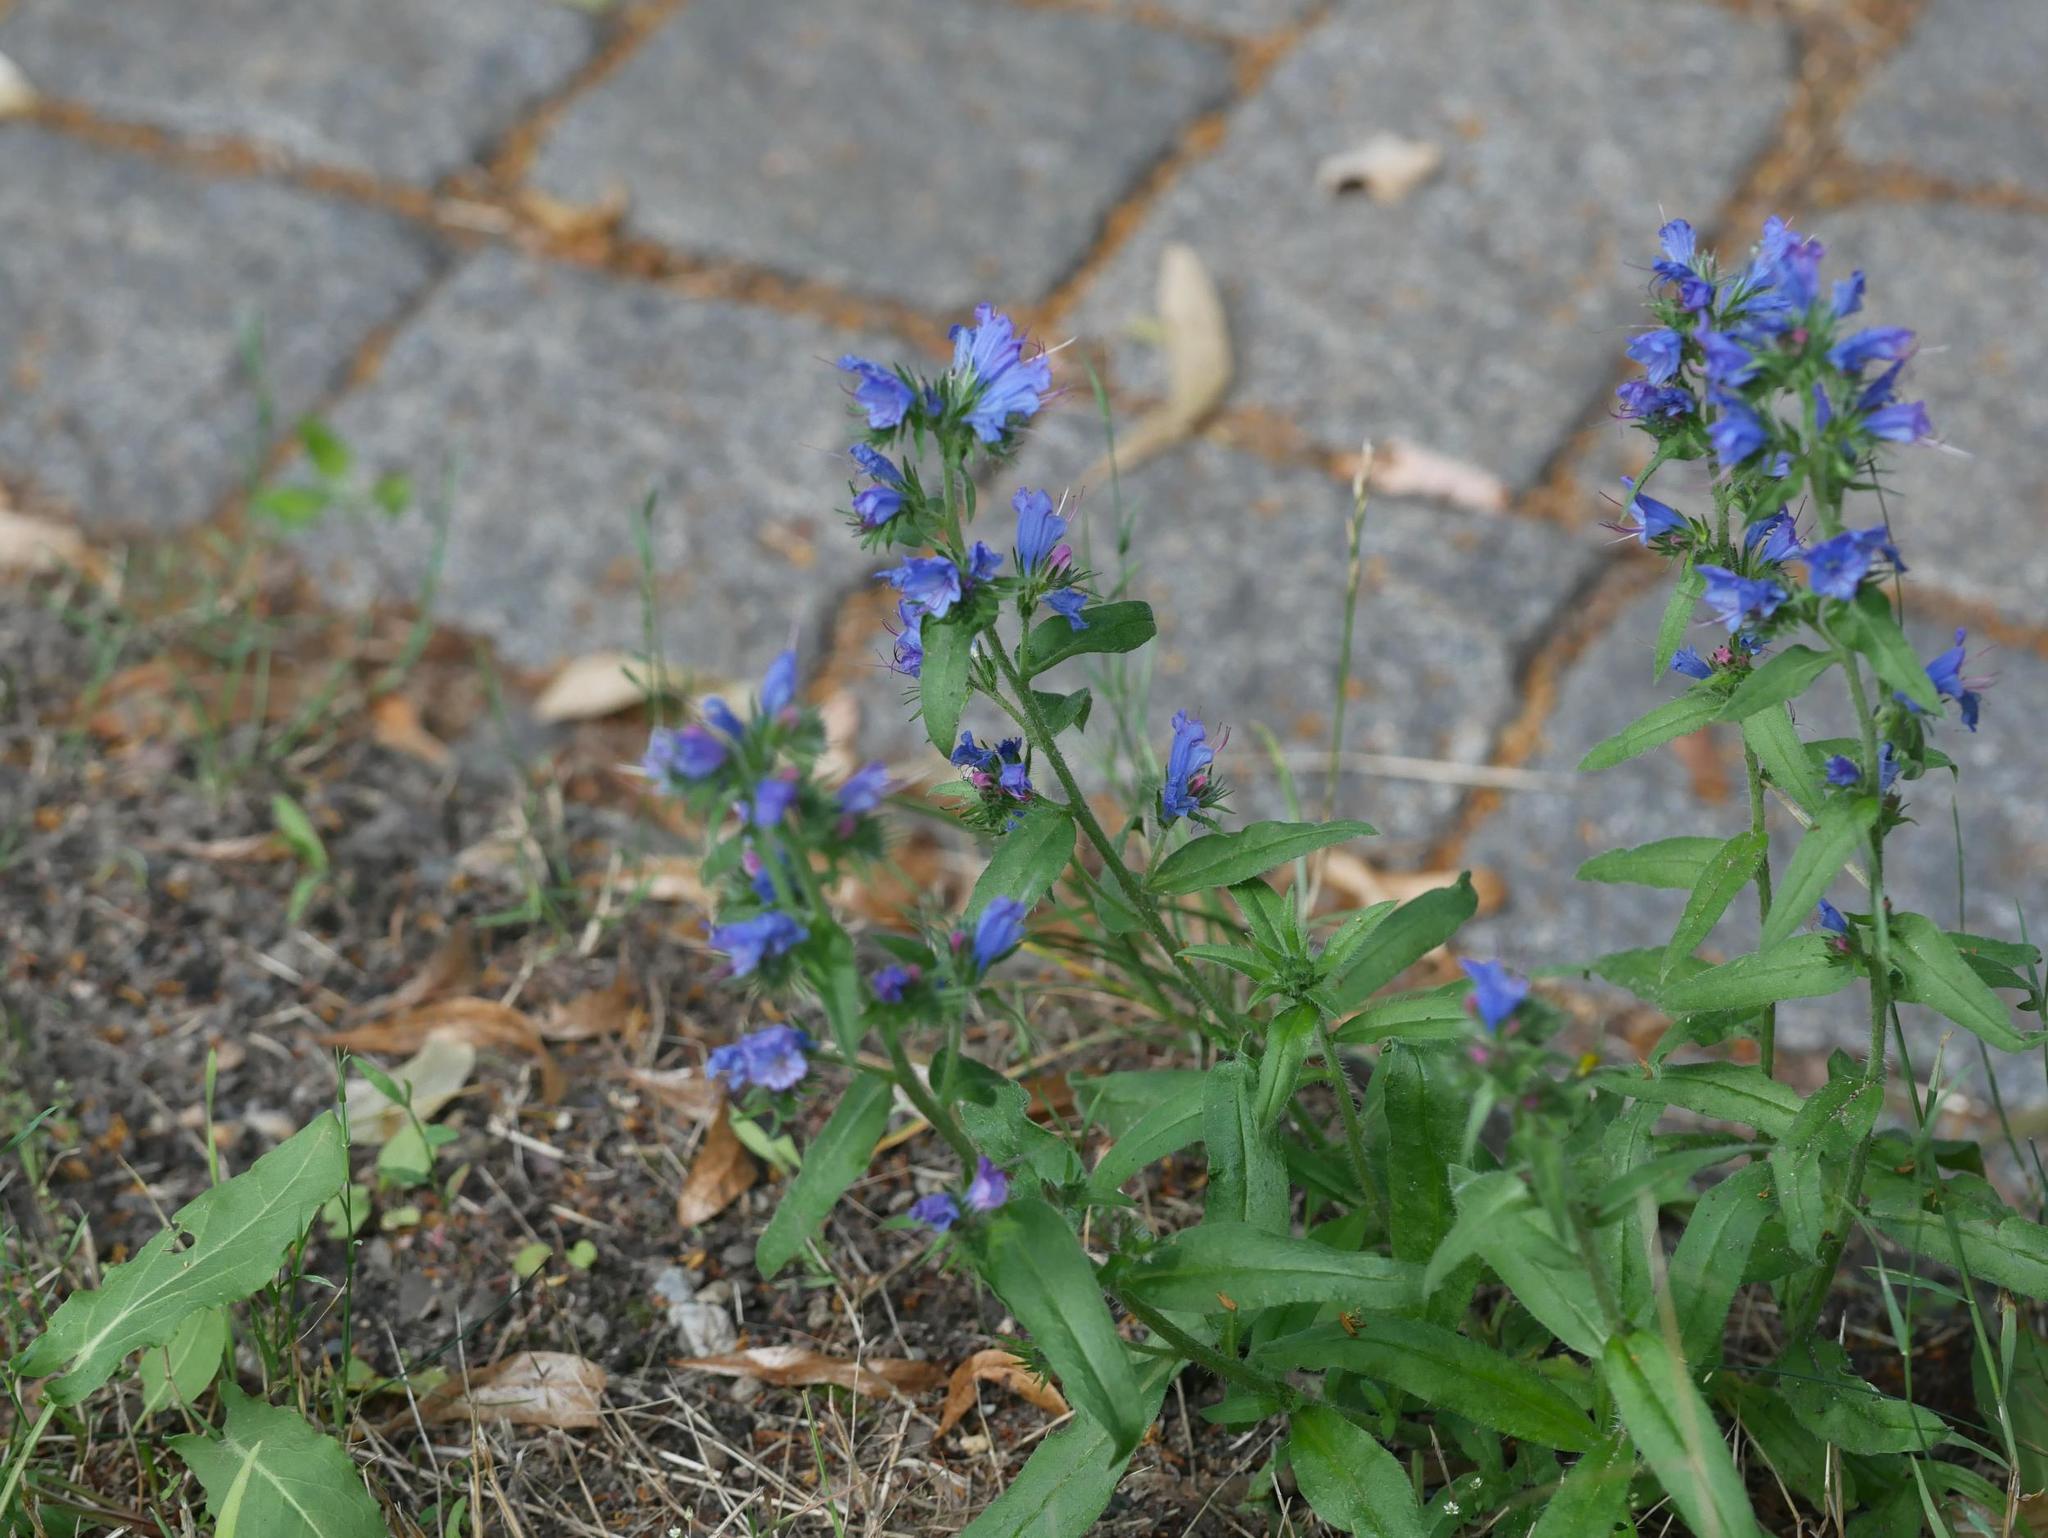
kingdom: Plantae
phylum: Tracheophyta
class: Magnoliopsida
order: Boraginales
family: Boraginaceae
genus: Echium
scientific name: Echium vulgare
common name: Common viper's bugloss
